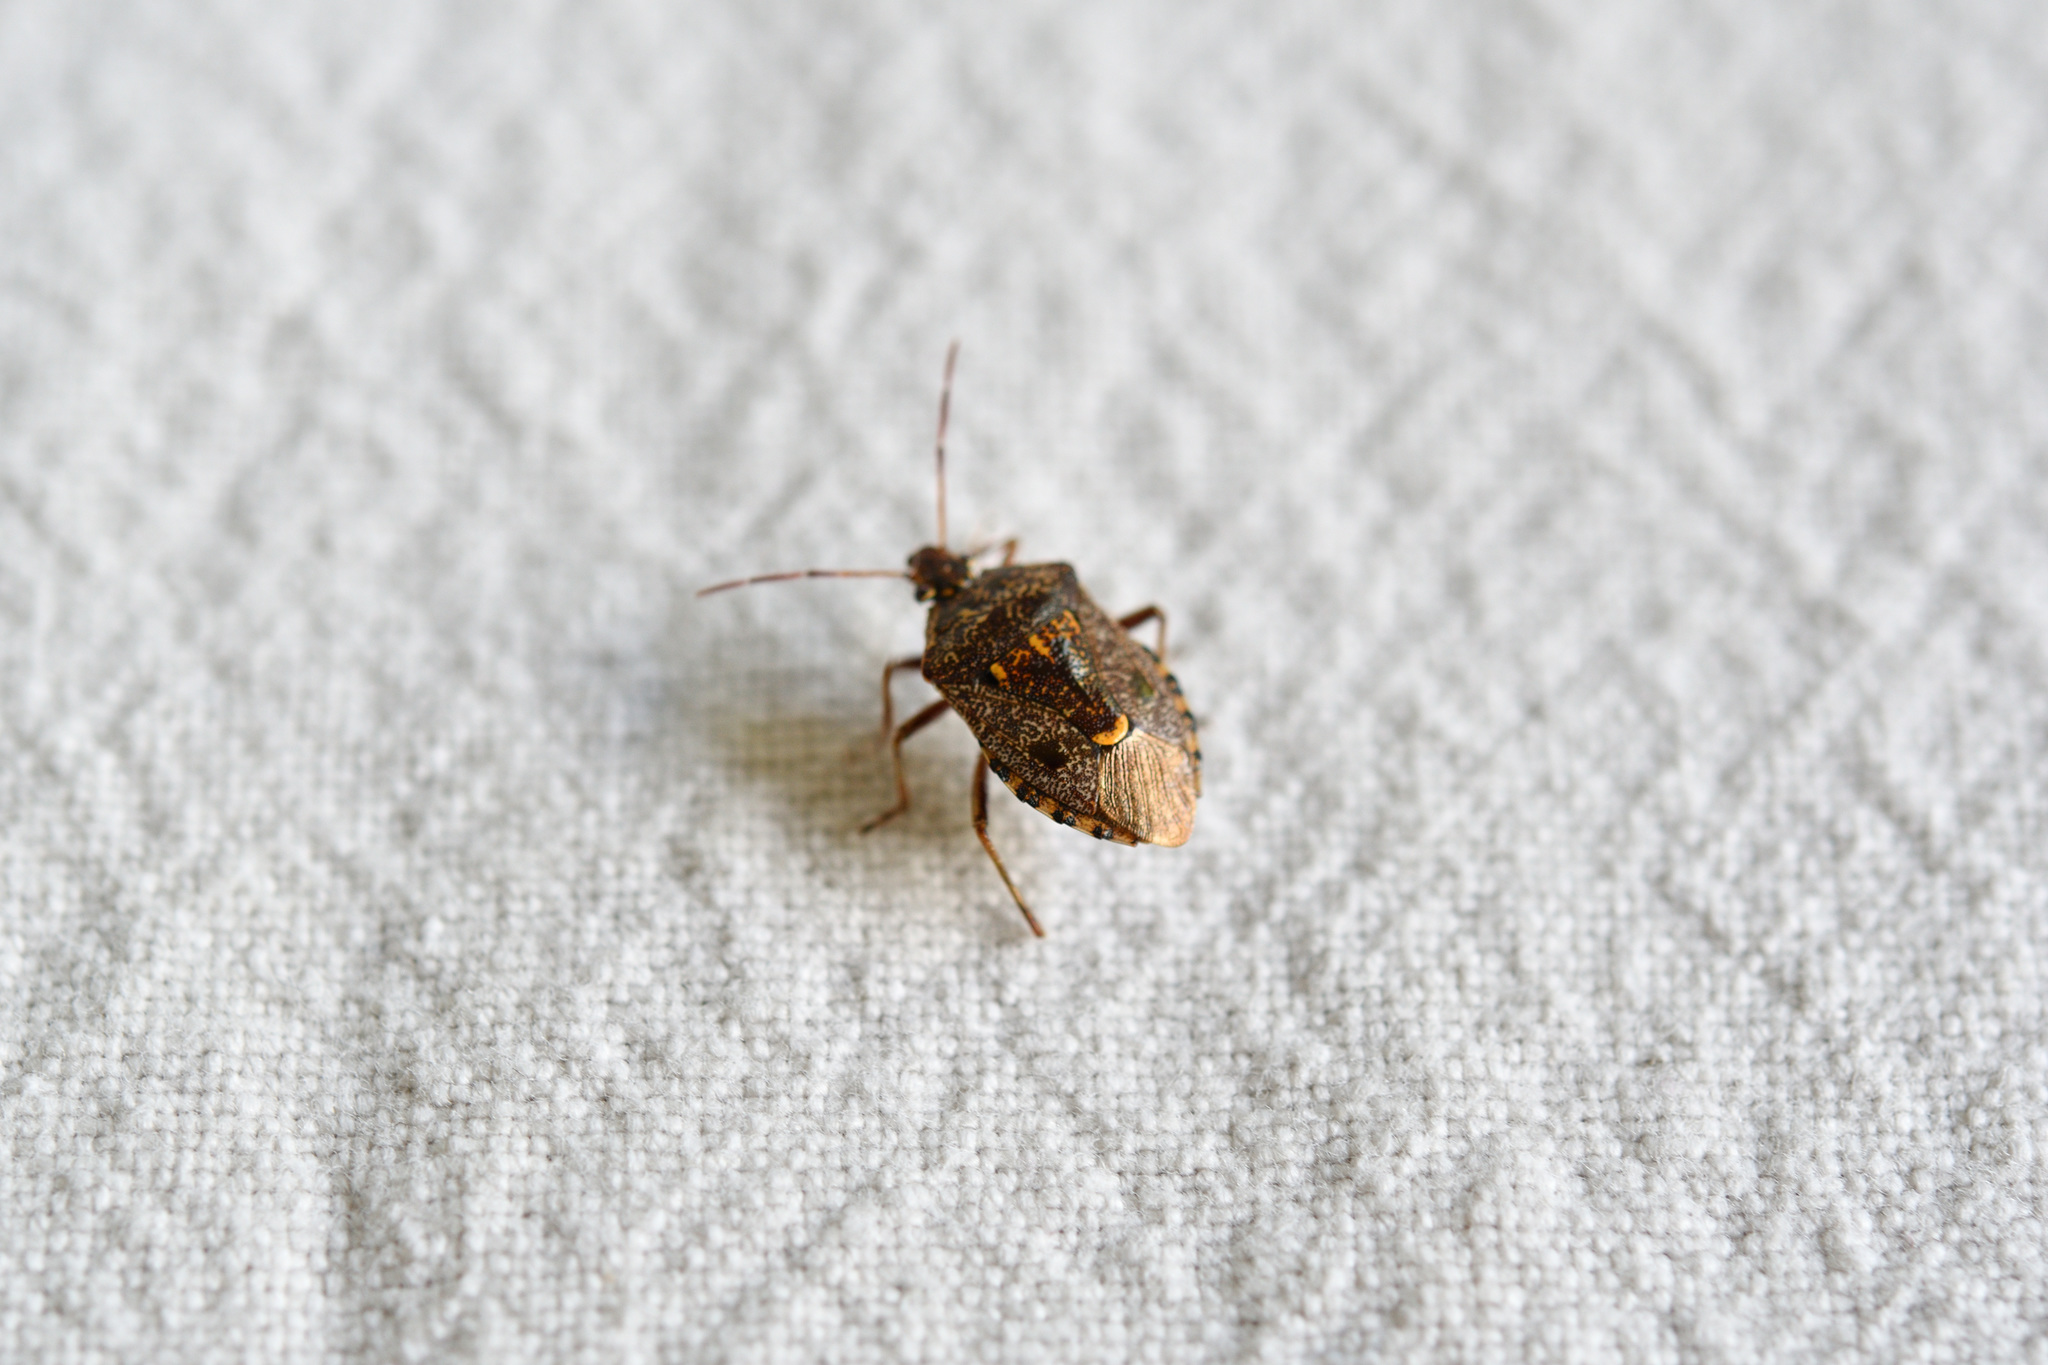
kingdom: Animalia
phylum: Arthropoda
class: Insecta
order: Hemiptera
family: Pentatomidae
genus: Cermatulus
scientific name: Cermatulus nasalis
